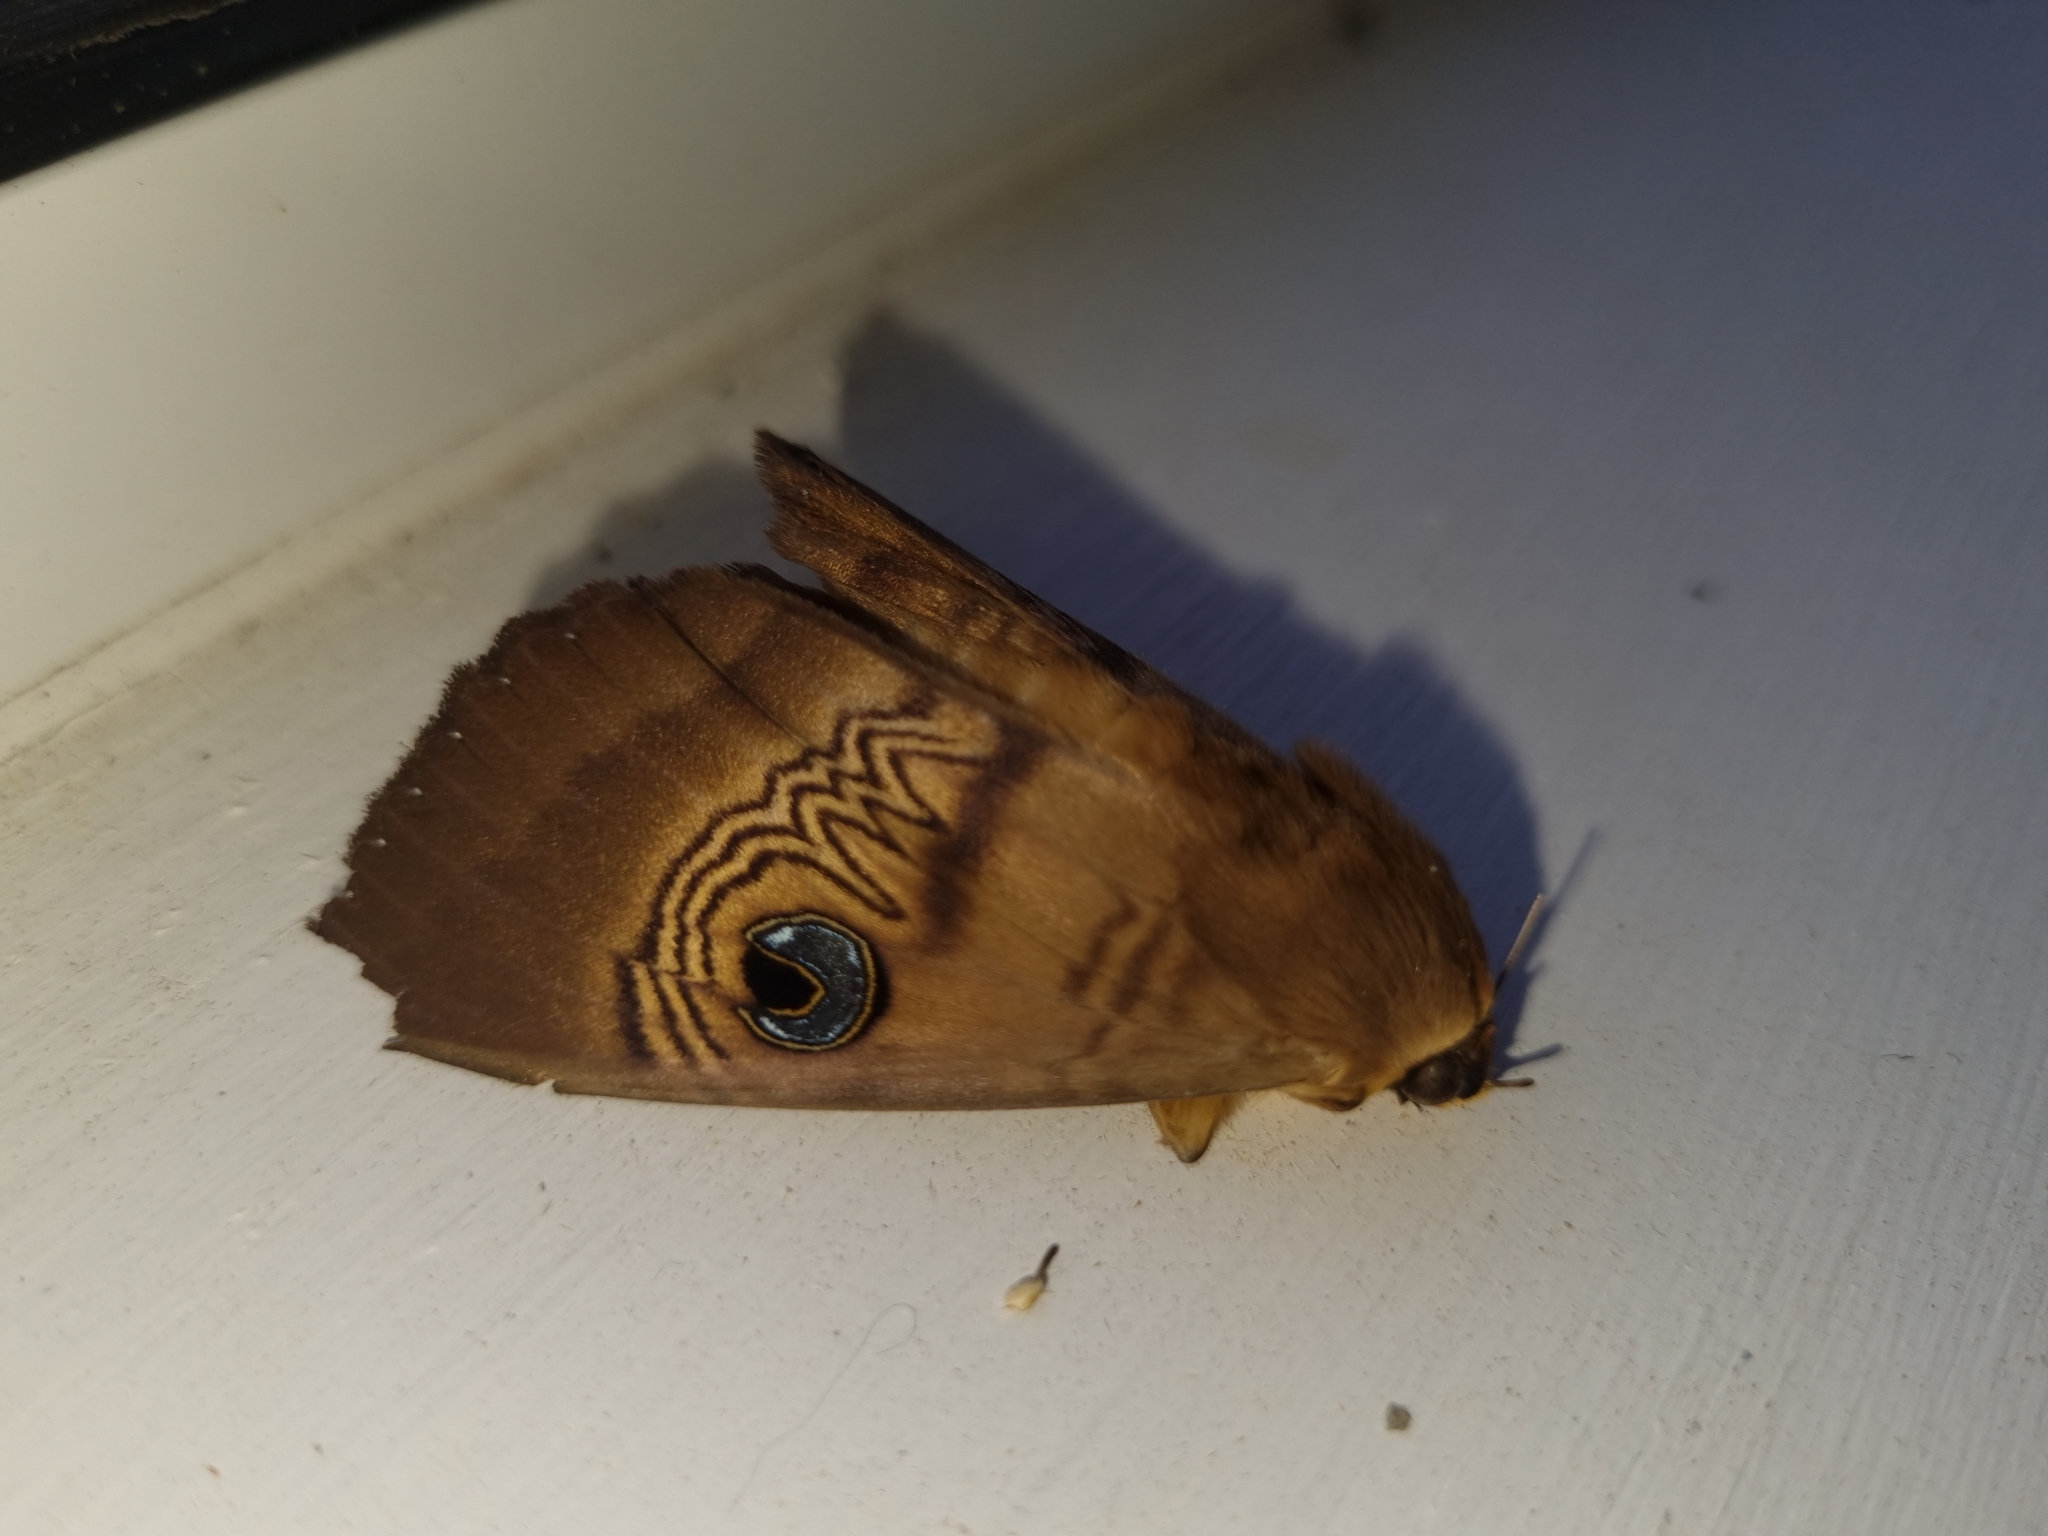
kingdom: Animalia
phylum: Arthropoda
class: Insecta
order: Lepidoptera
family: Erebidae
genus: Dasypodia
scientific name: Dasypodia selenophora
